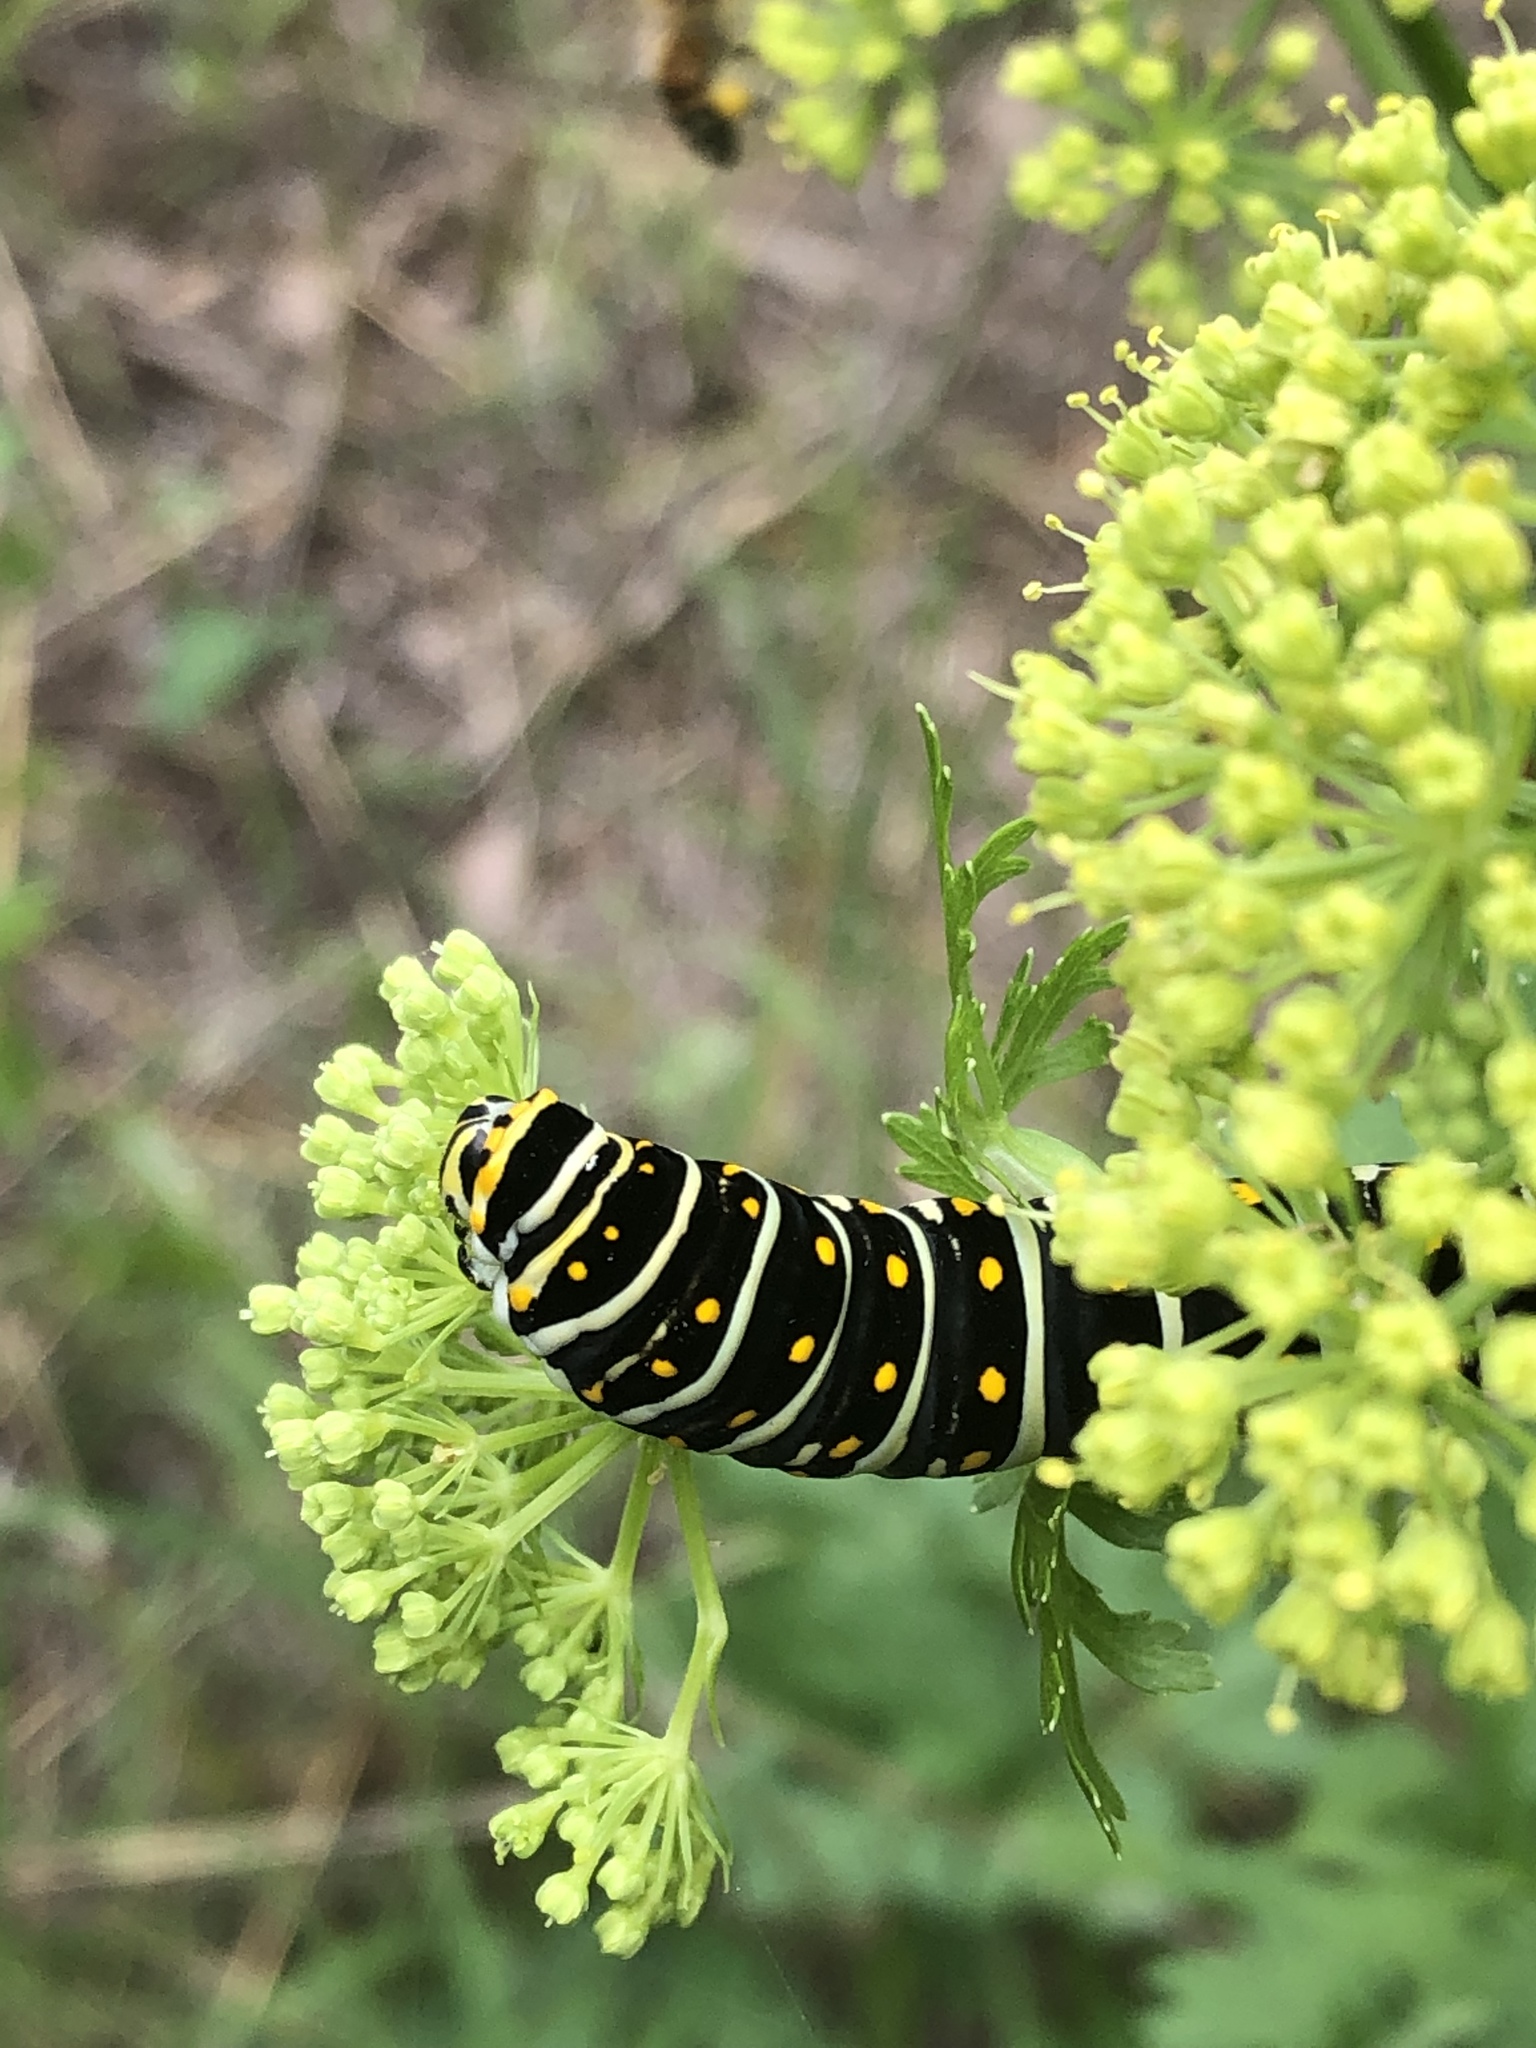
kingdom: Animalia
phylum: Arthropoda
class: Insecta
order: Lepidoptera
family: Papilionidae
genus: Papilio
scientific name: Papilio polyxenes
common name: Black swallowtail
